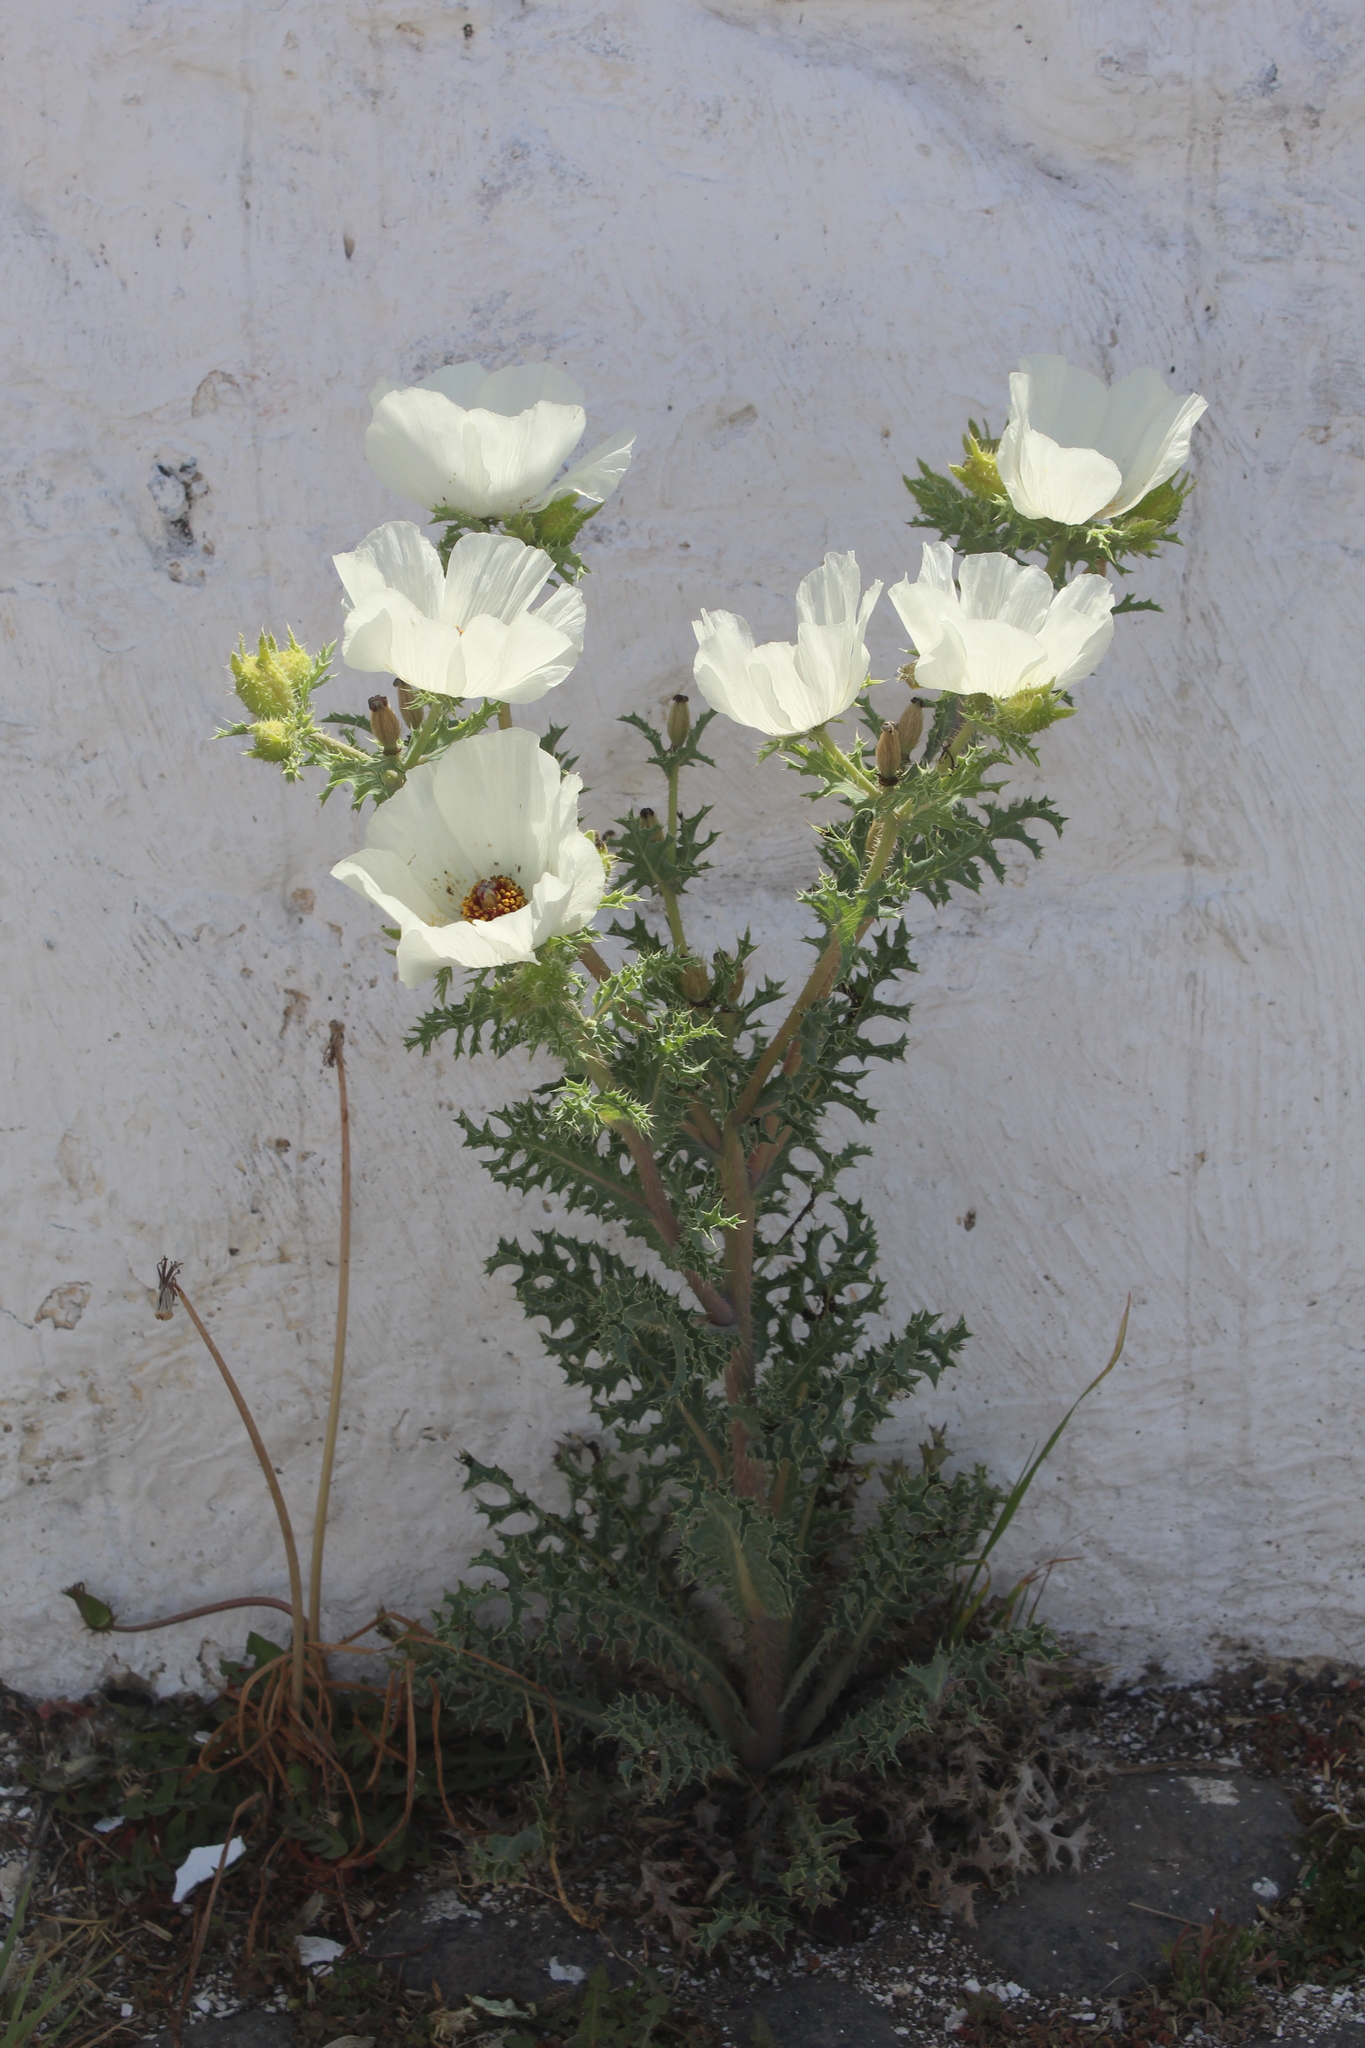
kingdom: Plantae
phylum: Tracheophyta
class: Magnoliopsida
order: Ranunculales
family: Papaveraceae
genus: Argemone
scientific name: Argemone platyceras
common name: Crested-poppy
